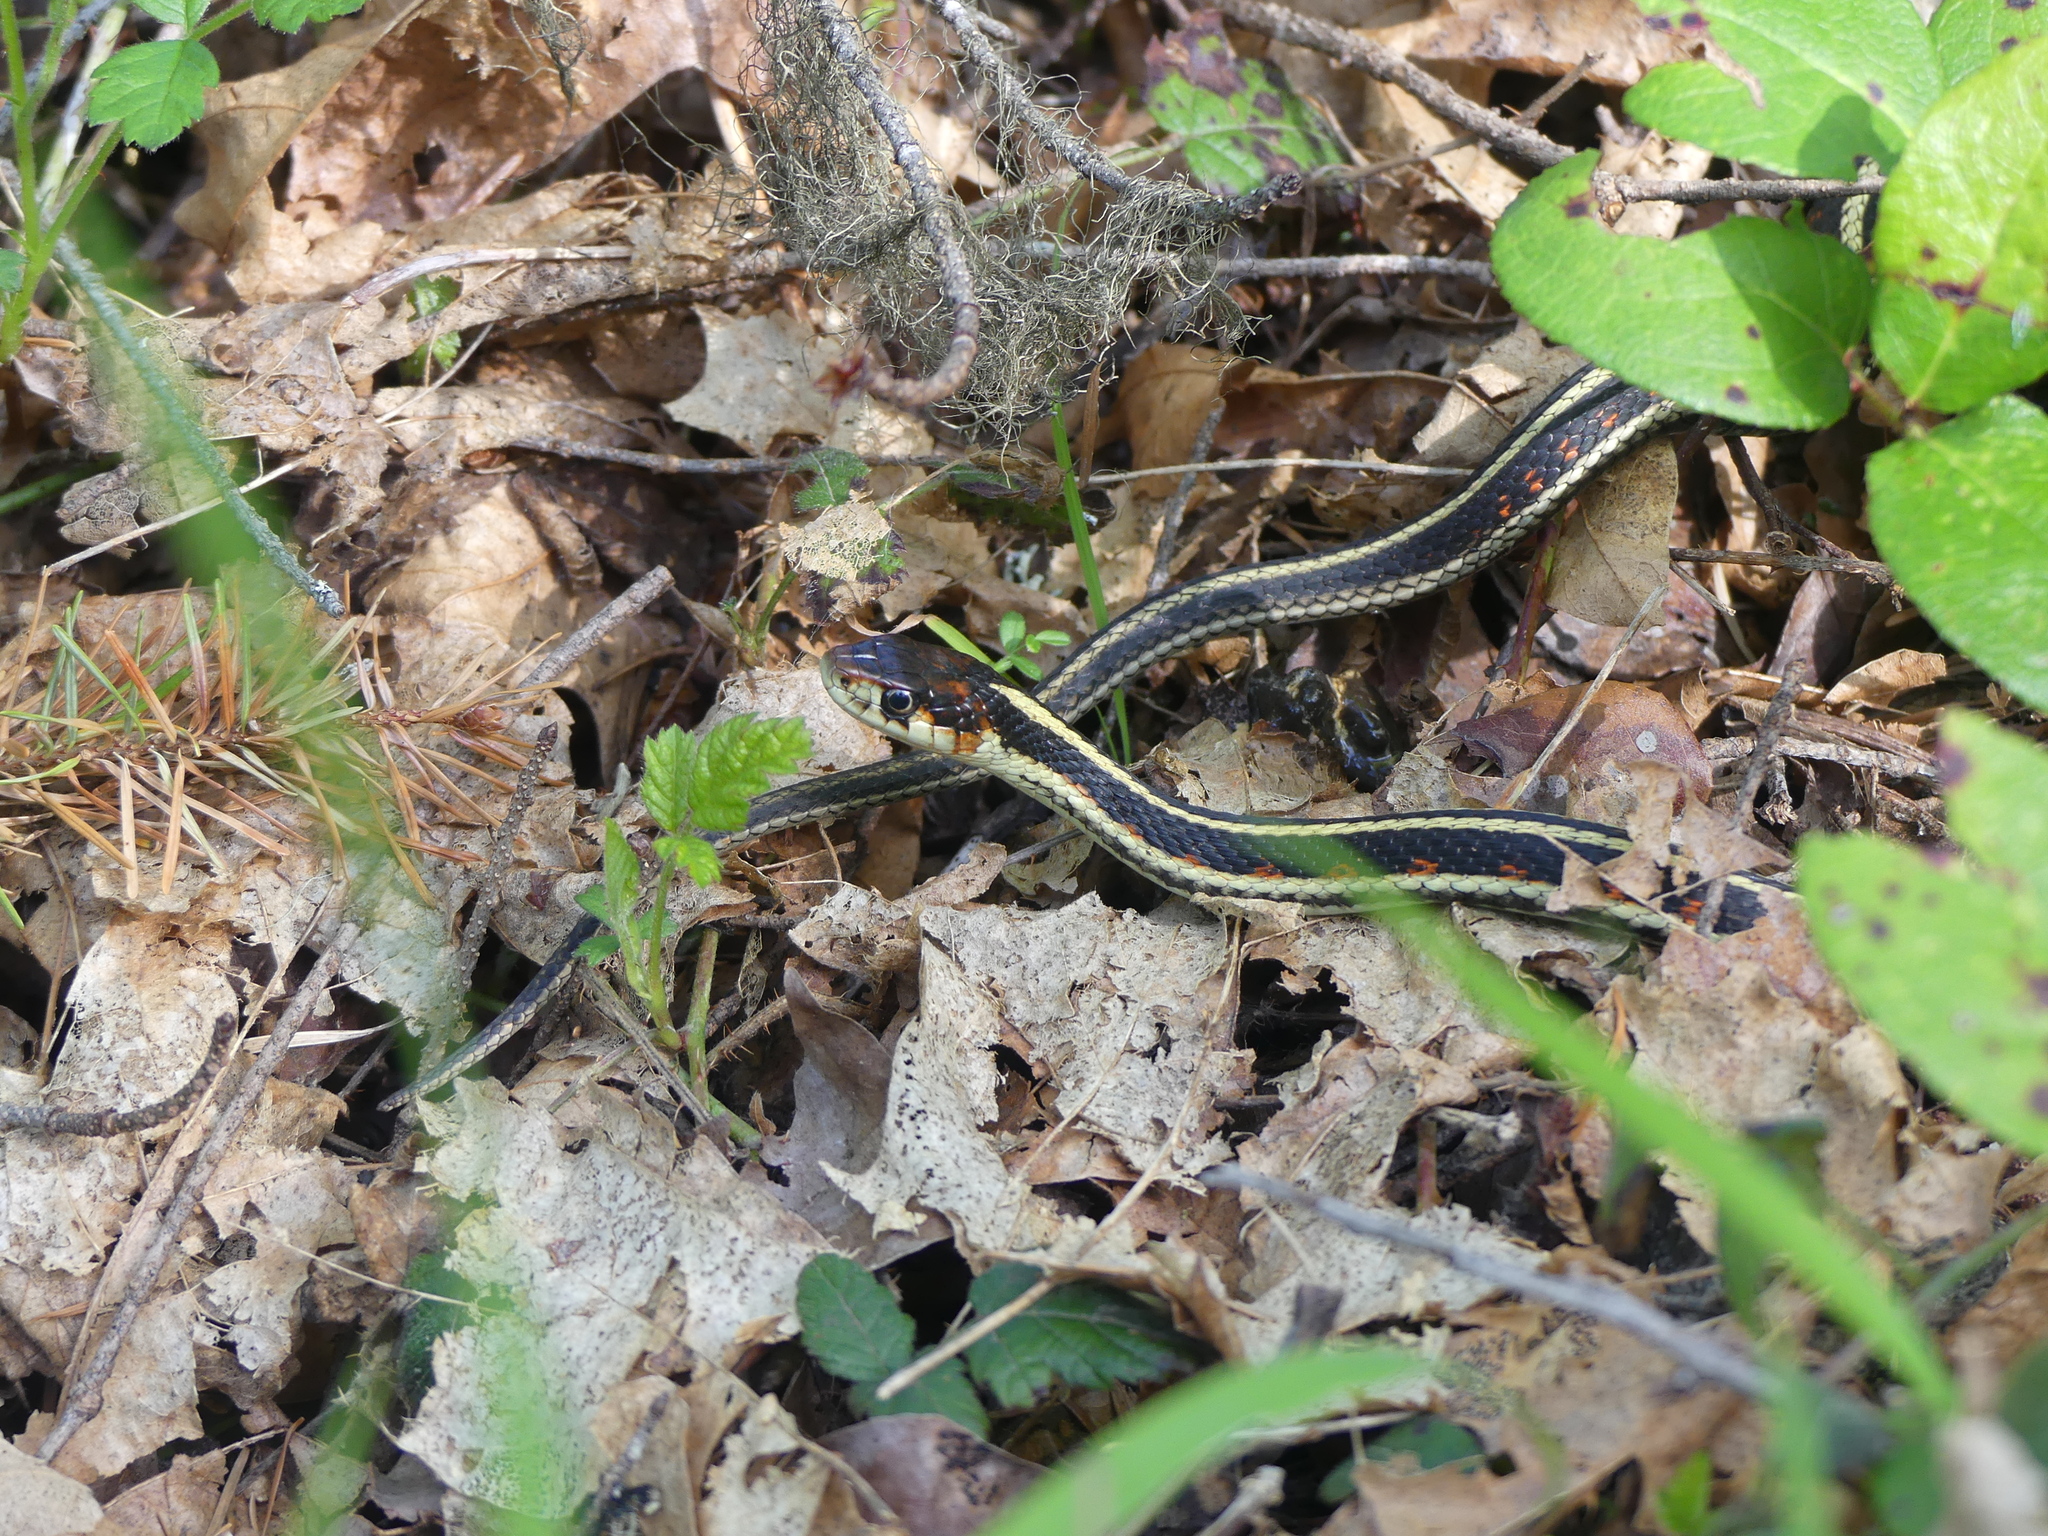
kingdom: Animalia
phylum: Chordata
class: Squamata
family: Colubridae
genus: Thamnophis
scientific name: Thamnophis sirtalis
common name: Common garter snake
